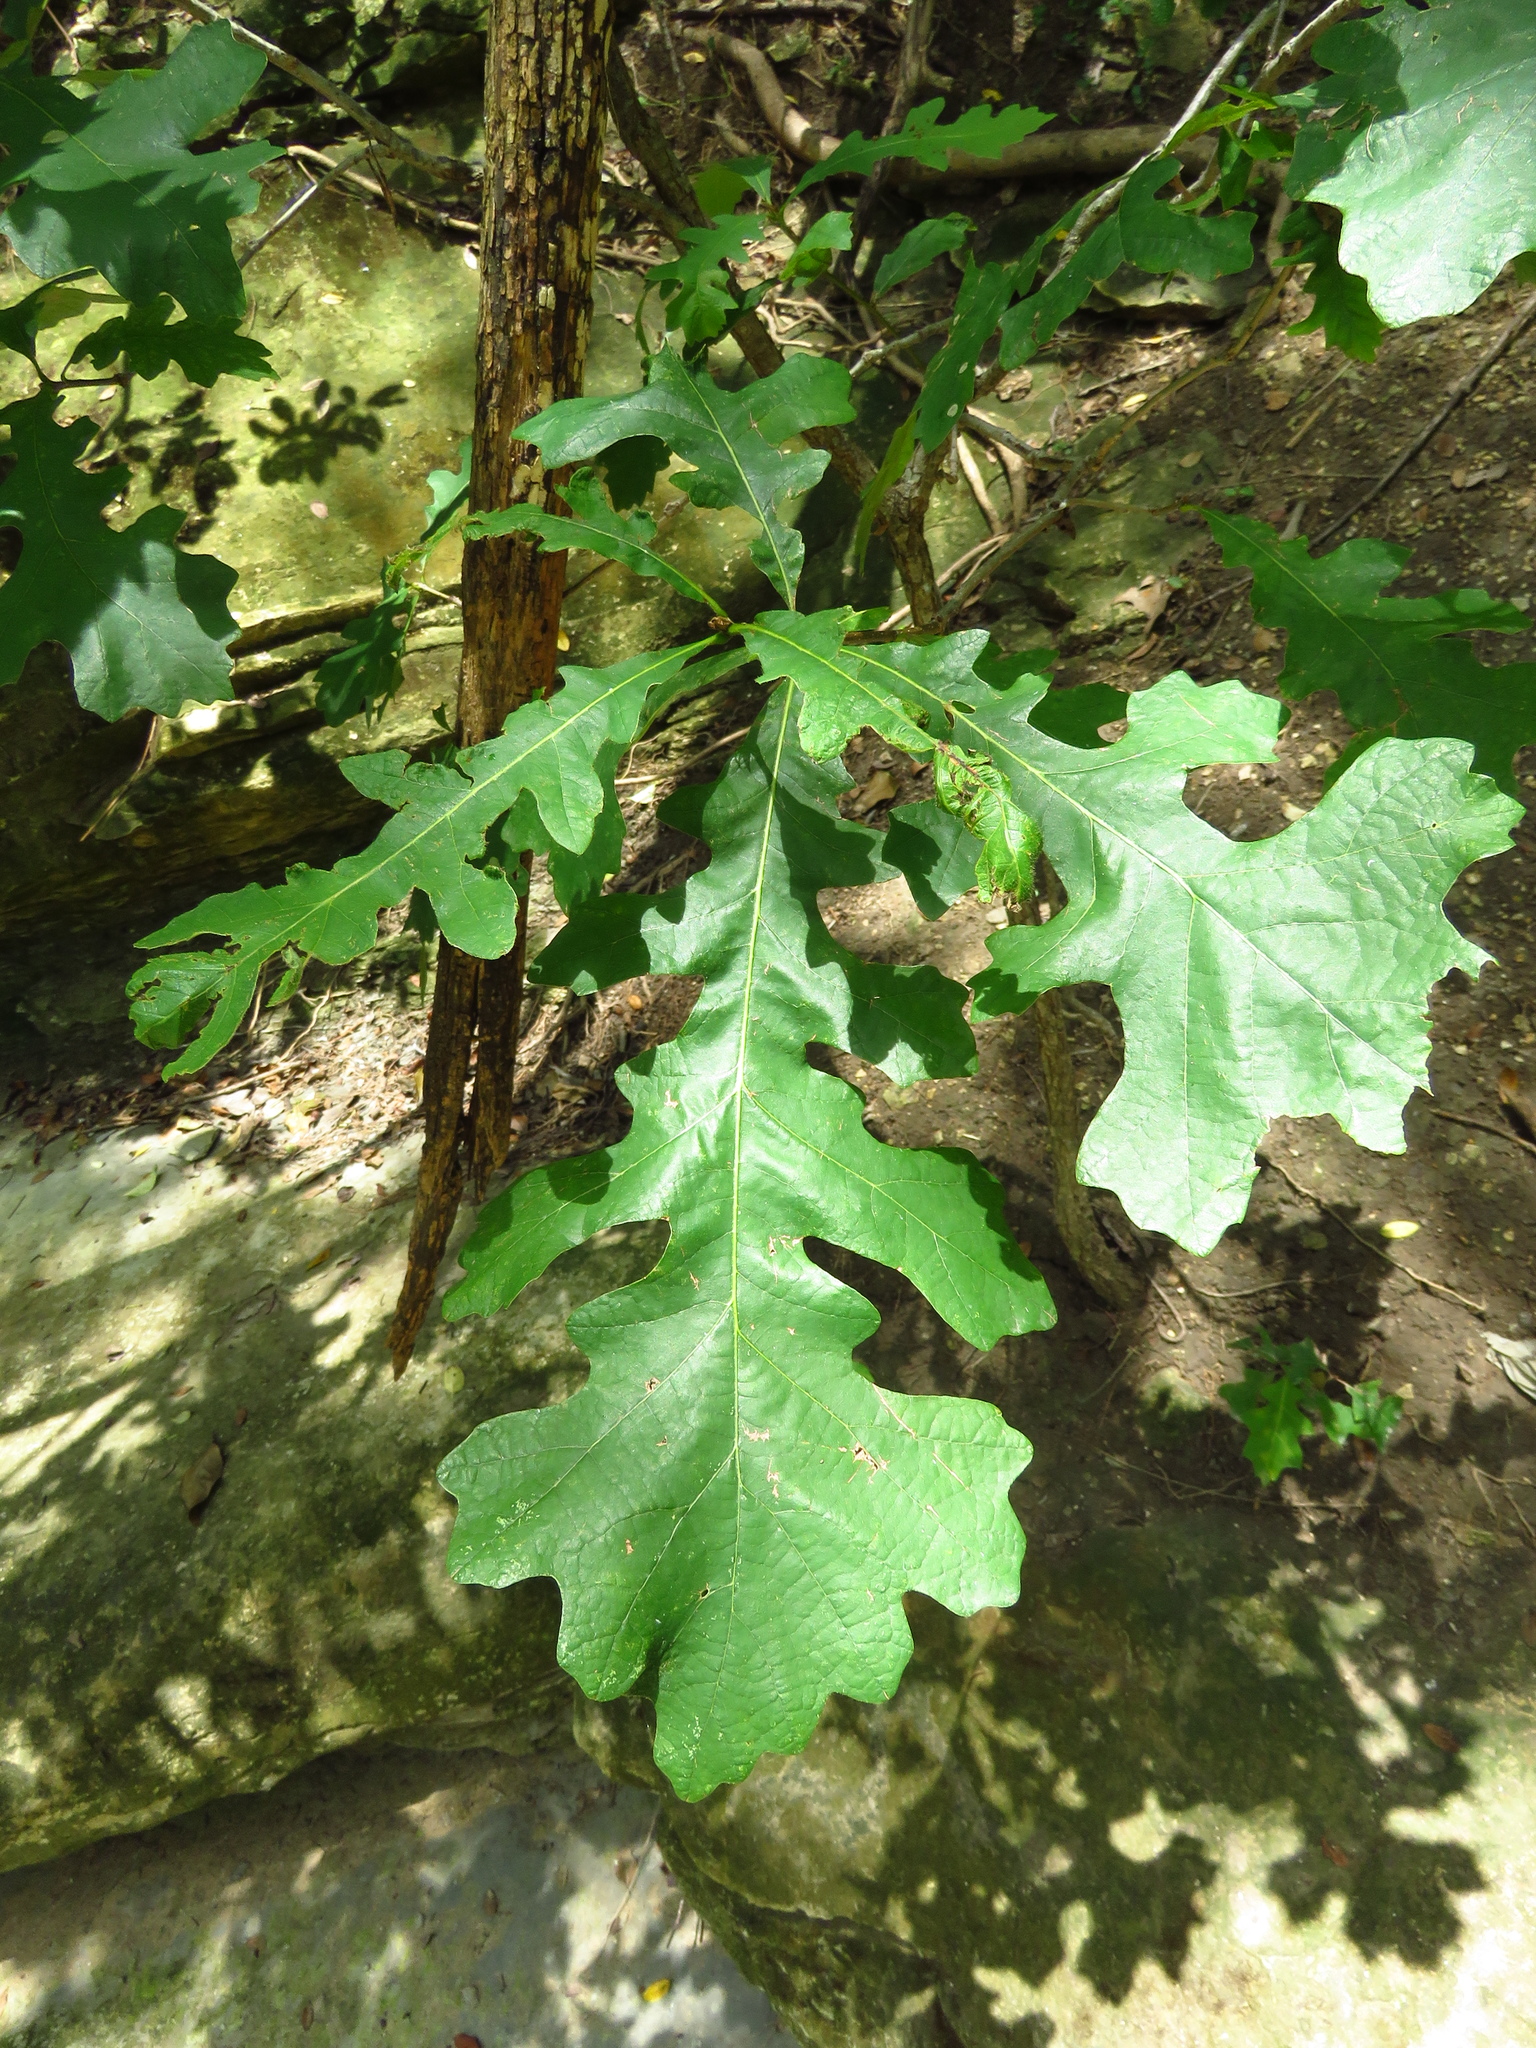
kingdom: Plantae
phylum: Tracheophyta
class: Magnoliopsida
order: Fagales
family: Fagaceae
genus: Quercus
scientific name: Quercus macrocarpa
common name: Bur oak
